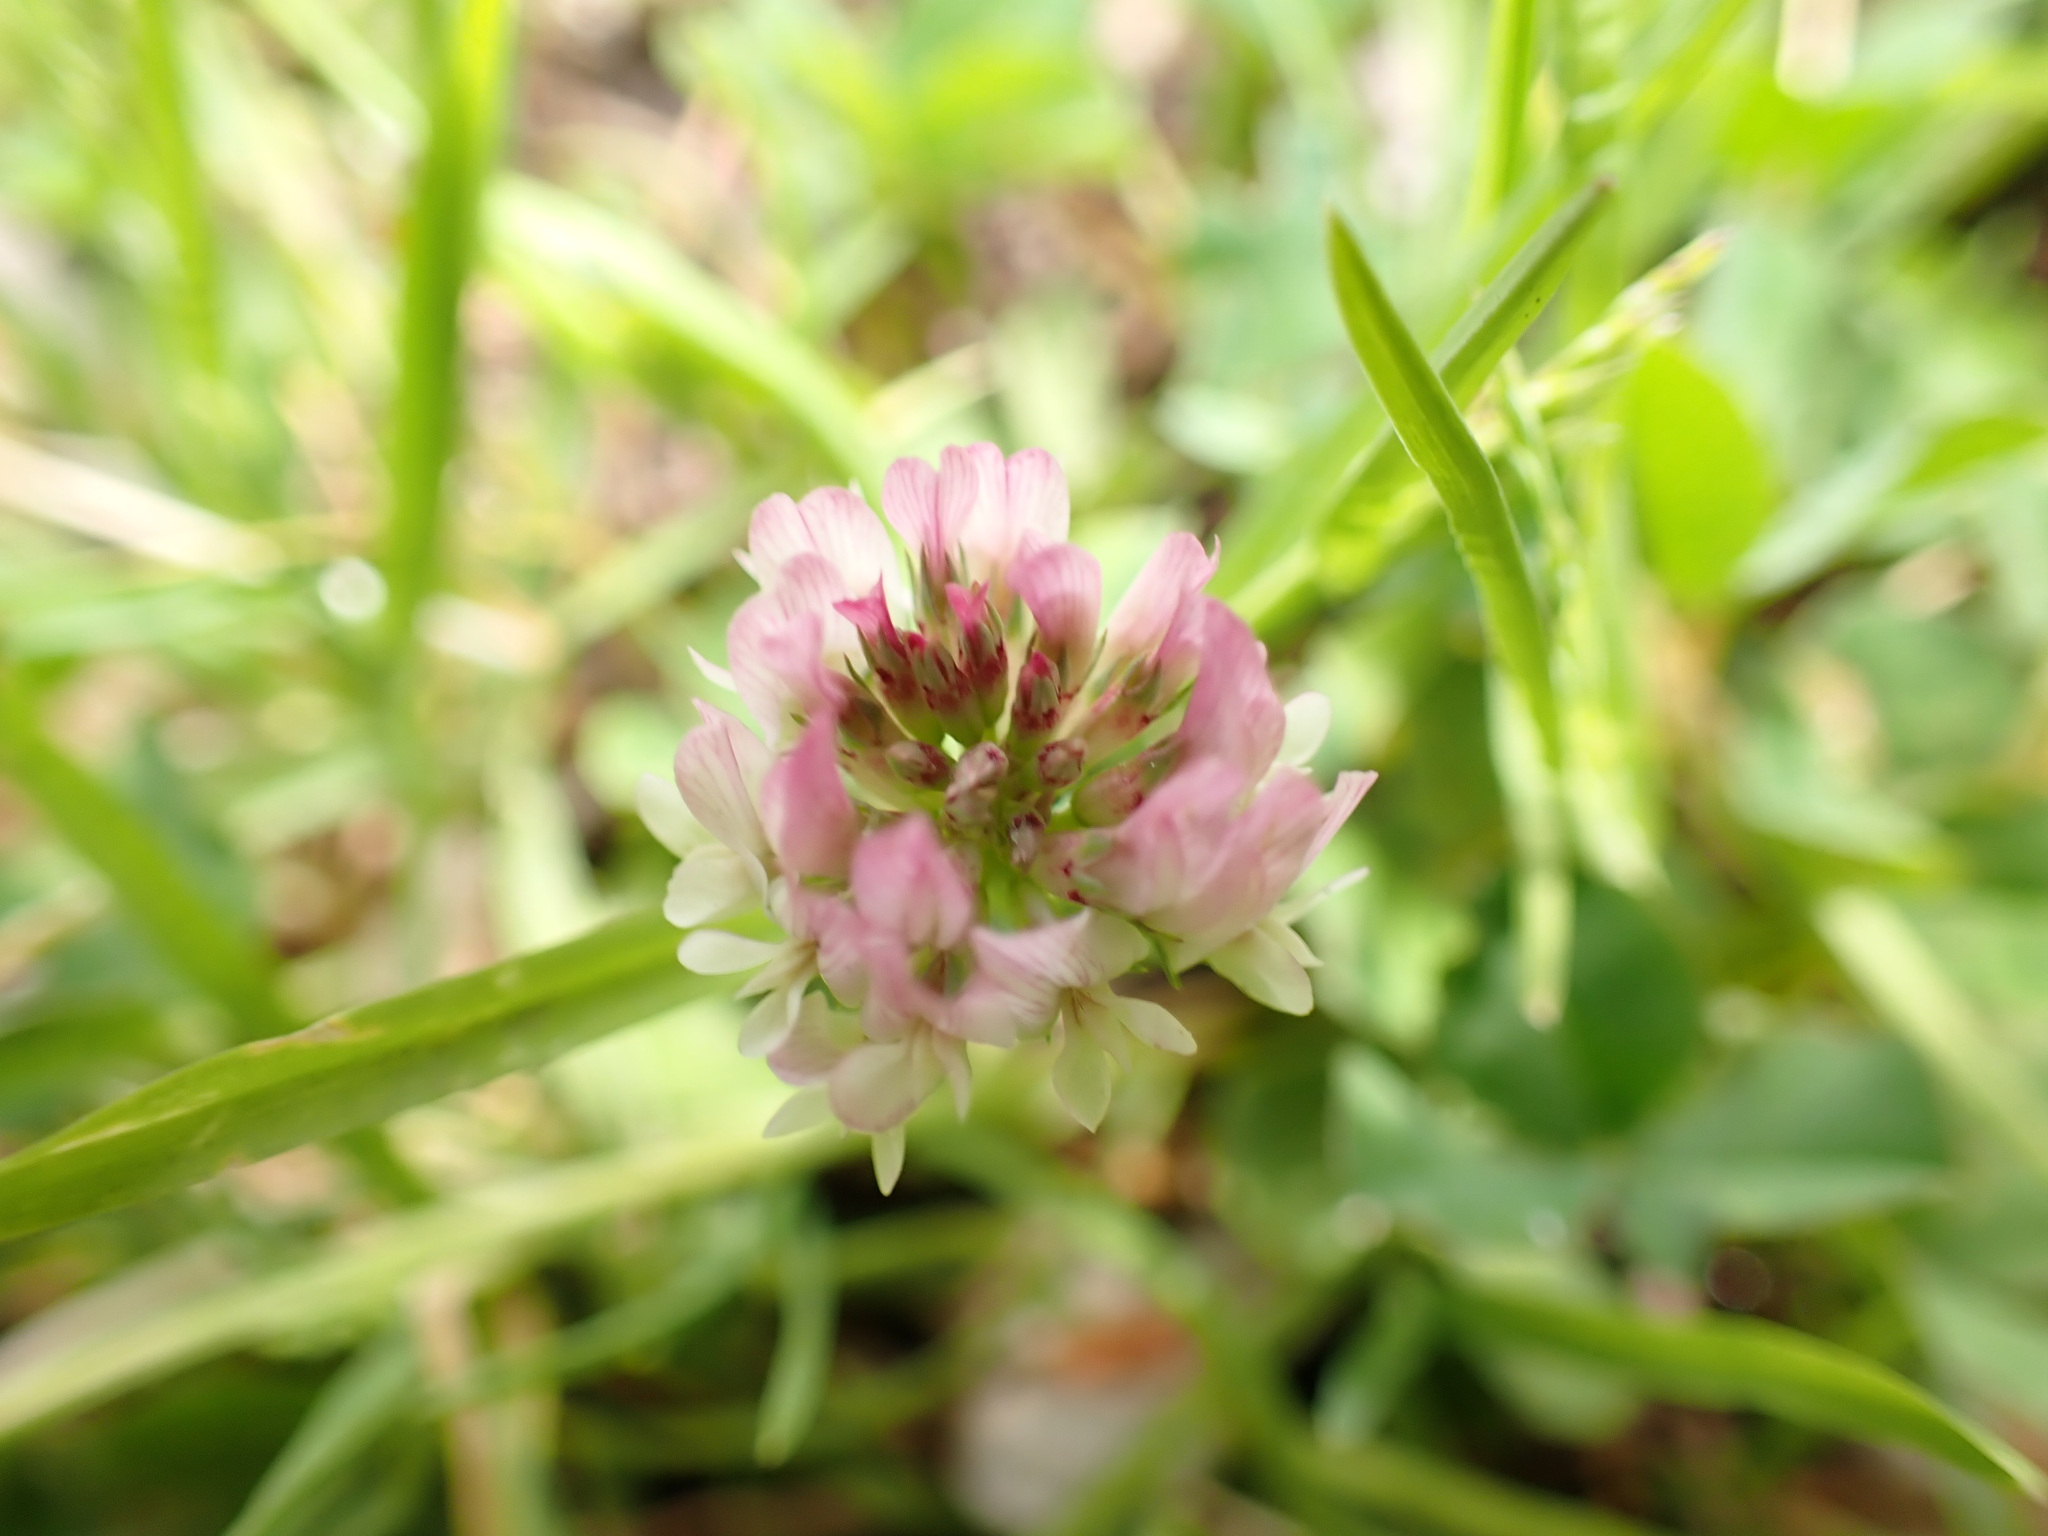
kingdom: Plantae
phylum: Tracheophyta
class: Magnoliopsida
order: Fabales
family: Fabaceae
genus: Trifolium
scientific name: Trifolium repens
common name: White clover
